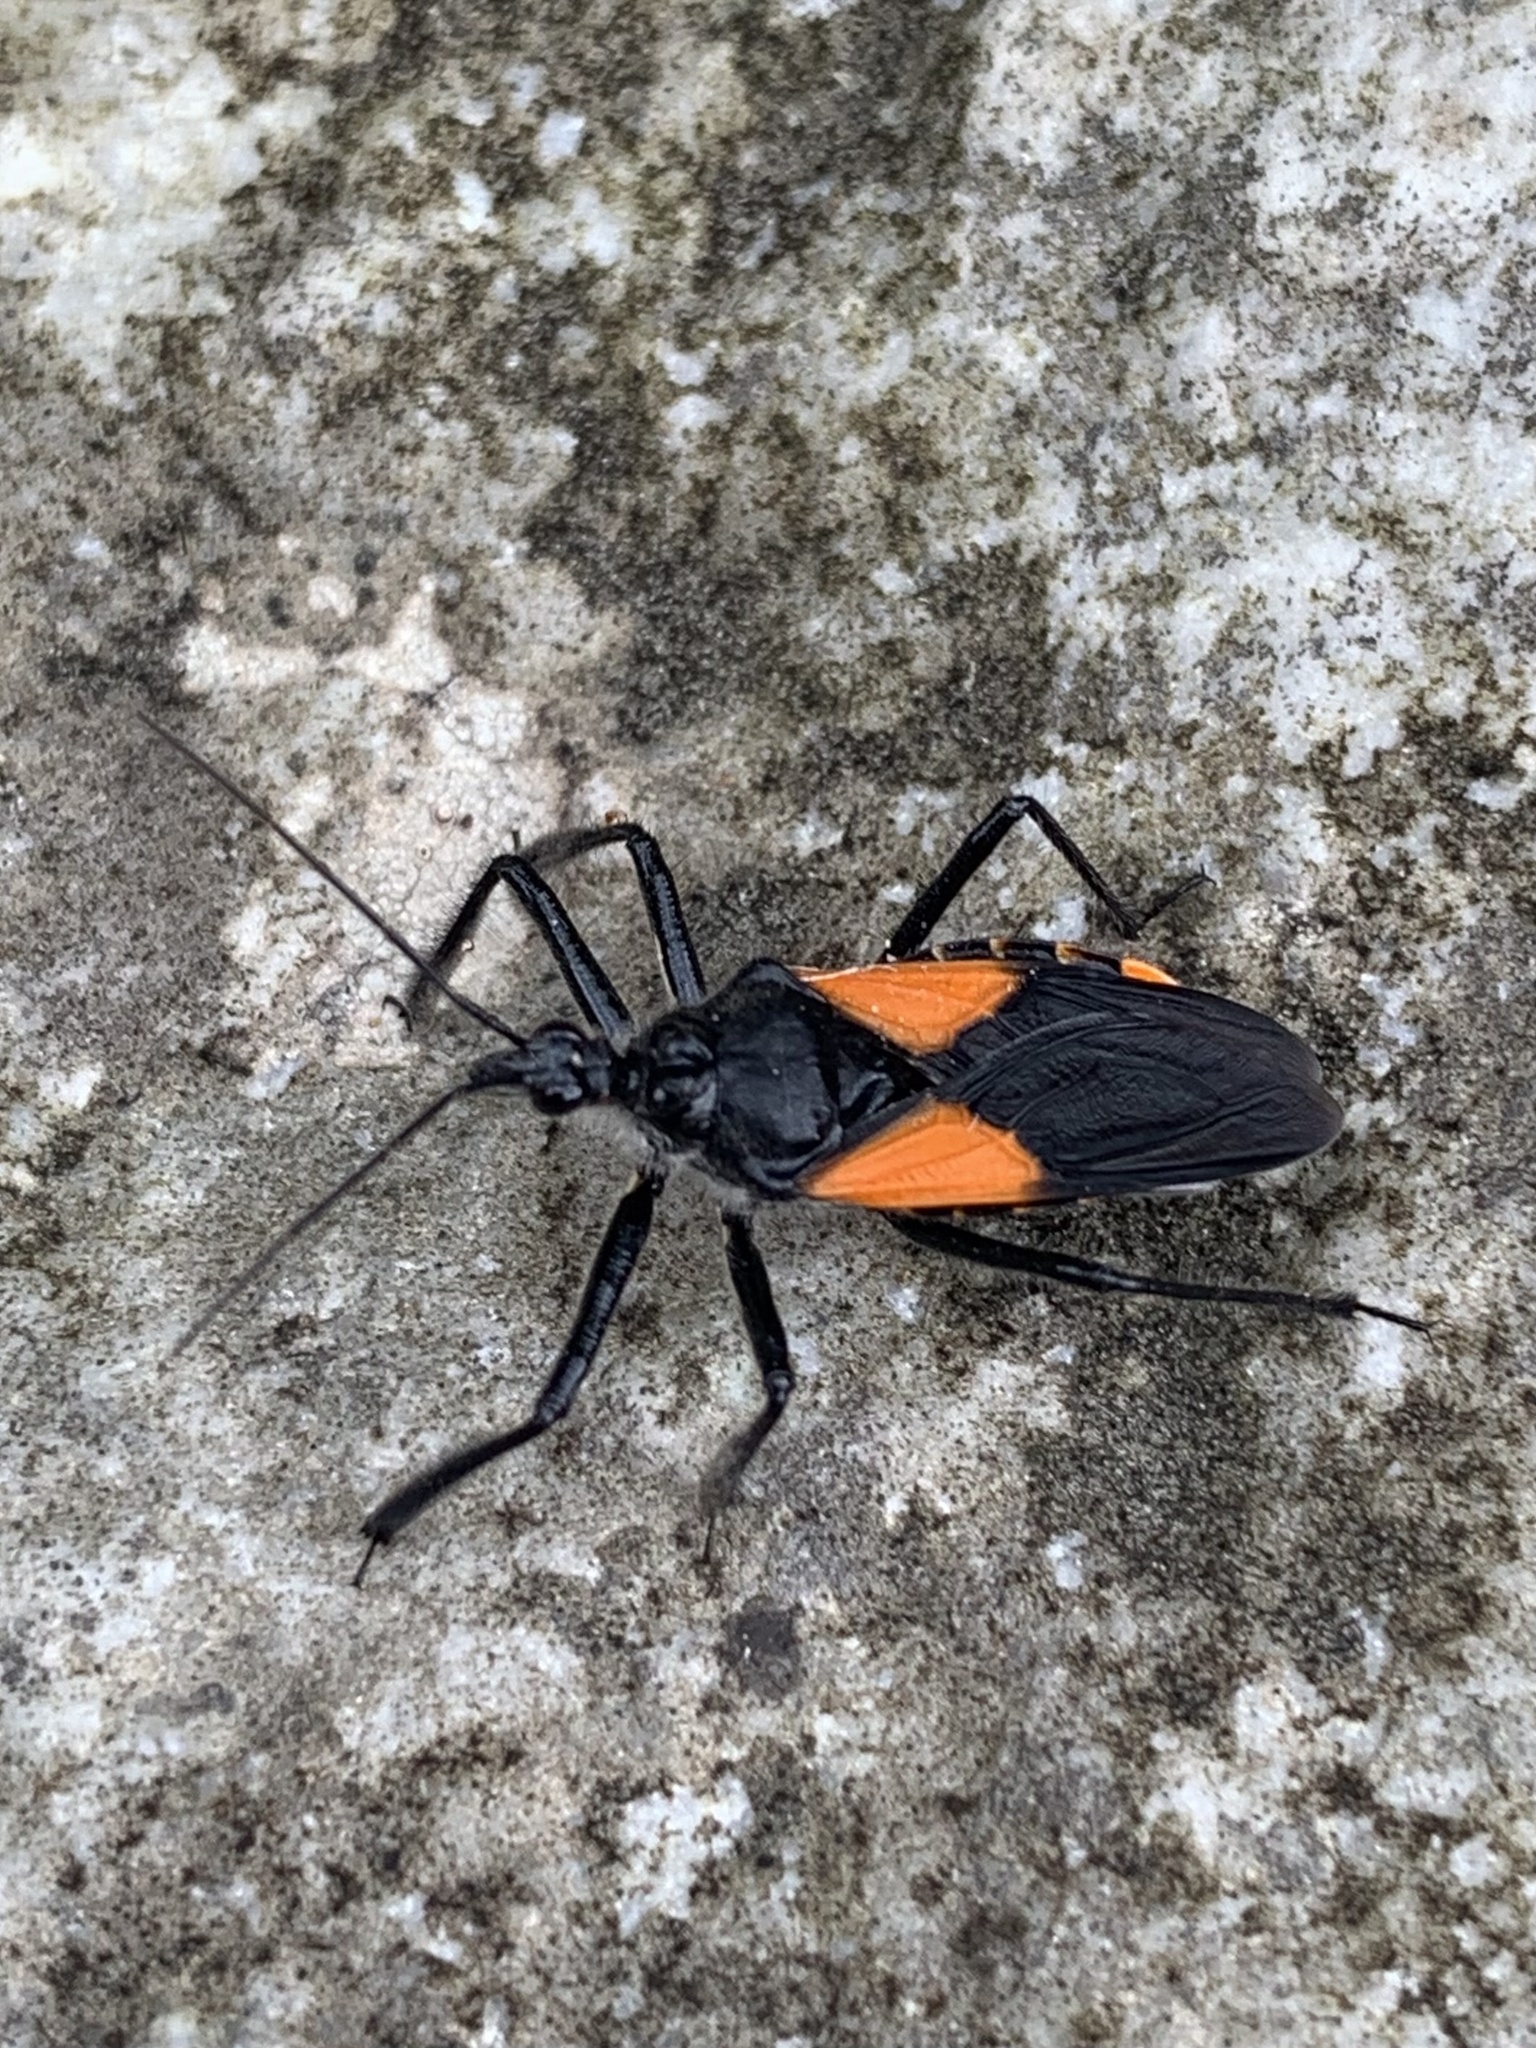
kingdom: Animalia
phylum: Arthropoda
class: Insecta
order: Hemiptera
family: Reduviidae
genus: Apiomerus
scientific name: Apiomerus saileri
